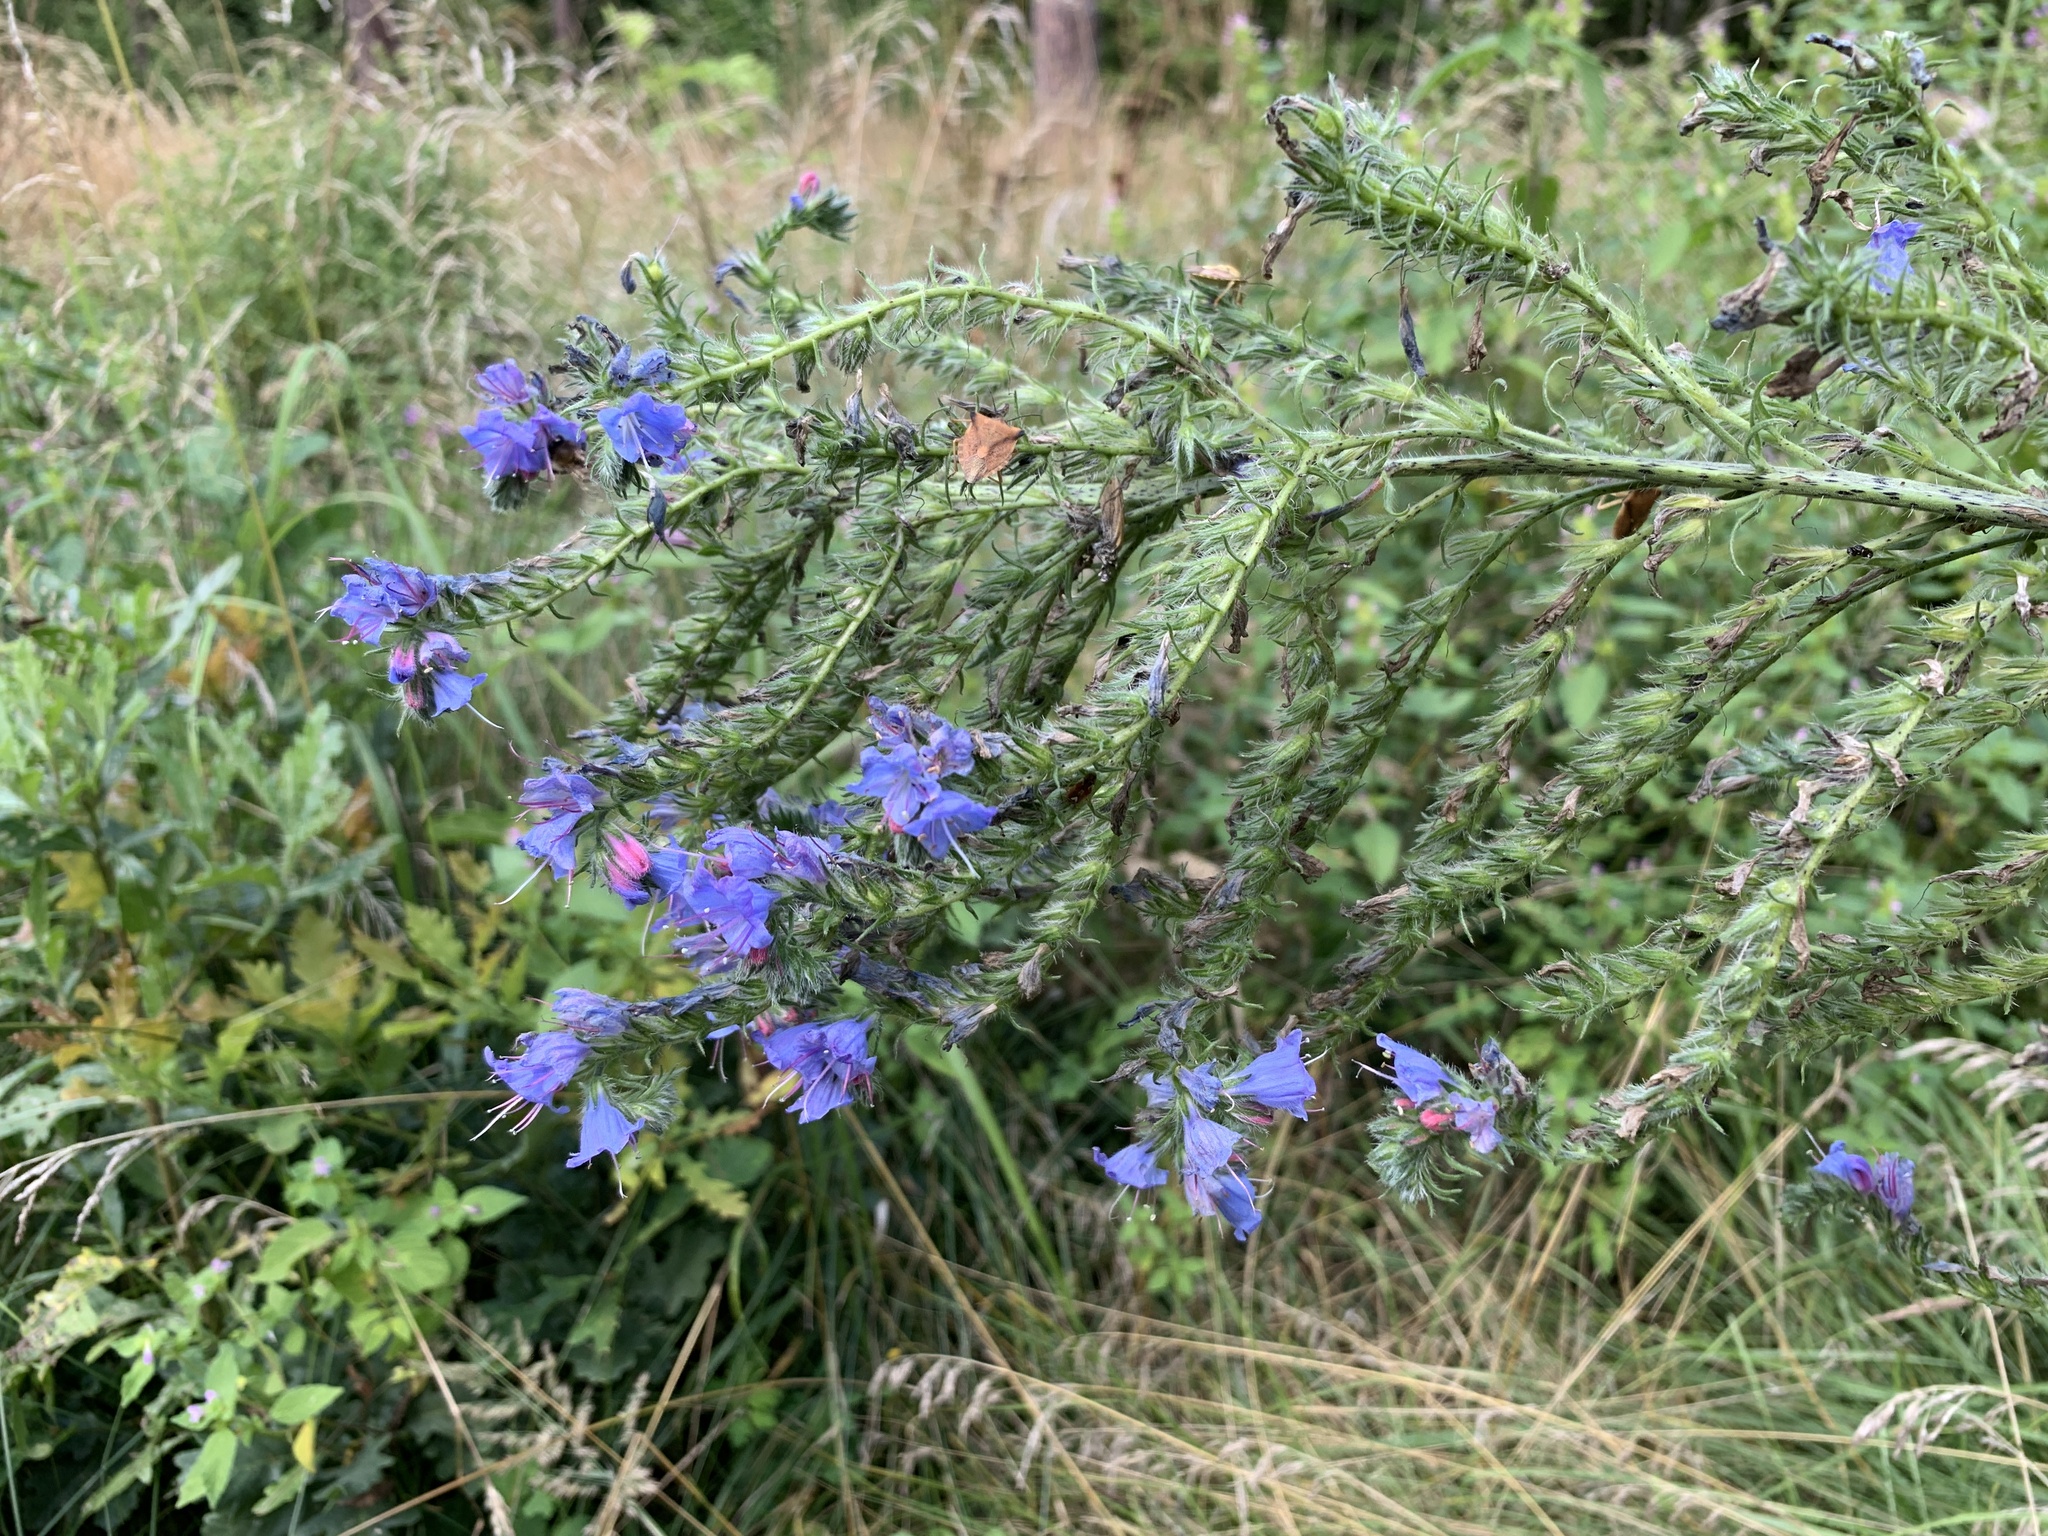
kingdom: Plantae
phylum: Tracheophyta
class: Magnoliopsida
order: Boraginales
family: Boraginaceae
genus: Echium
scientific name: Echium vulgare
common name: Common viper's bugloss
